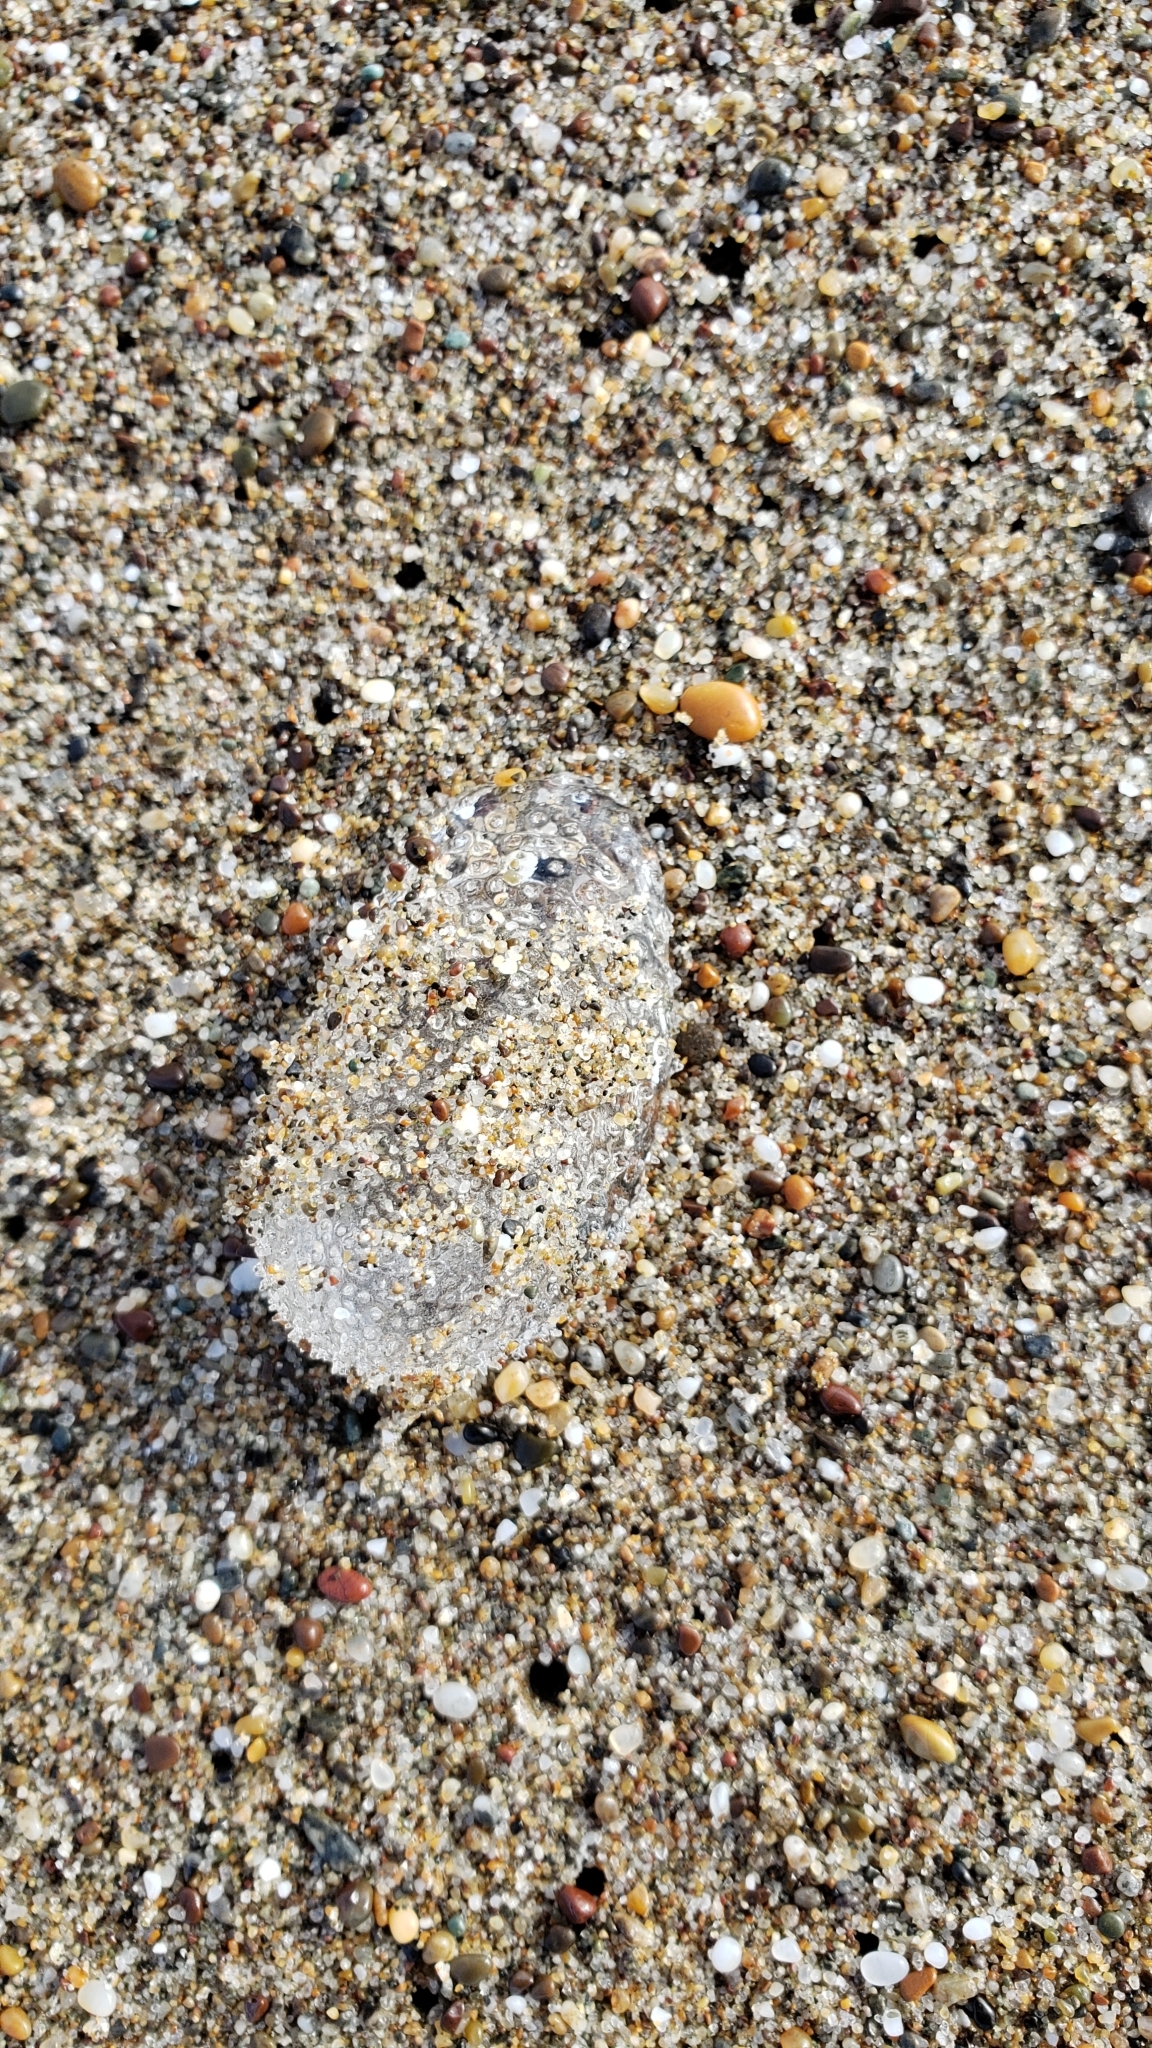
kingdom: Animalia
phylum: Mollusca
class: Gastropoda
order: Pteropoda
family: Cymbuliidae
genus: Corolla
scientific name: Corolla spectabilis
